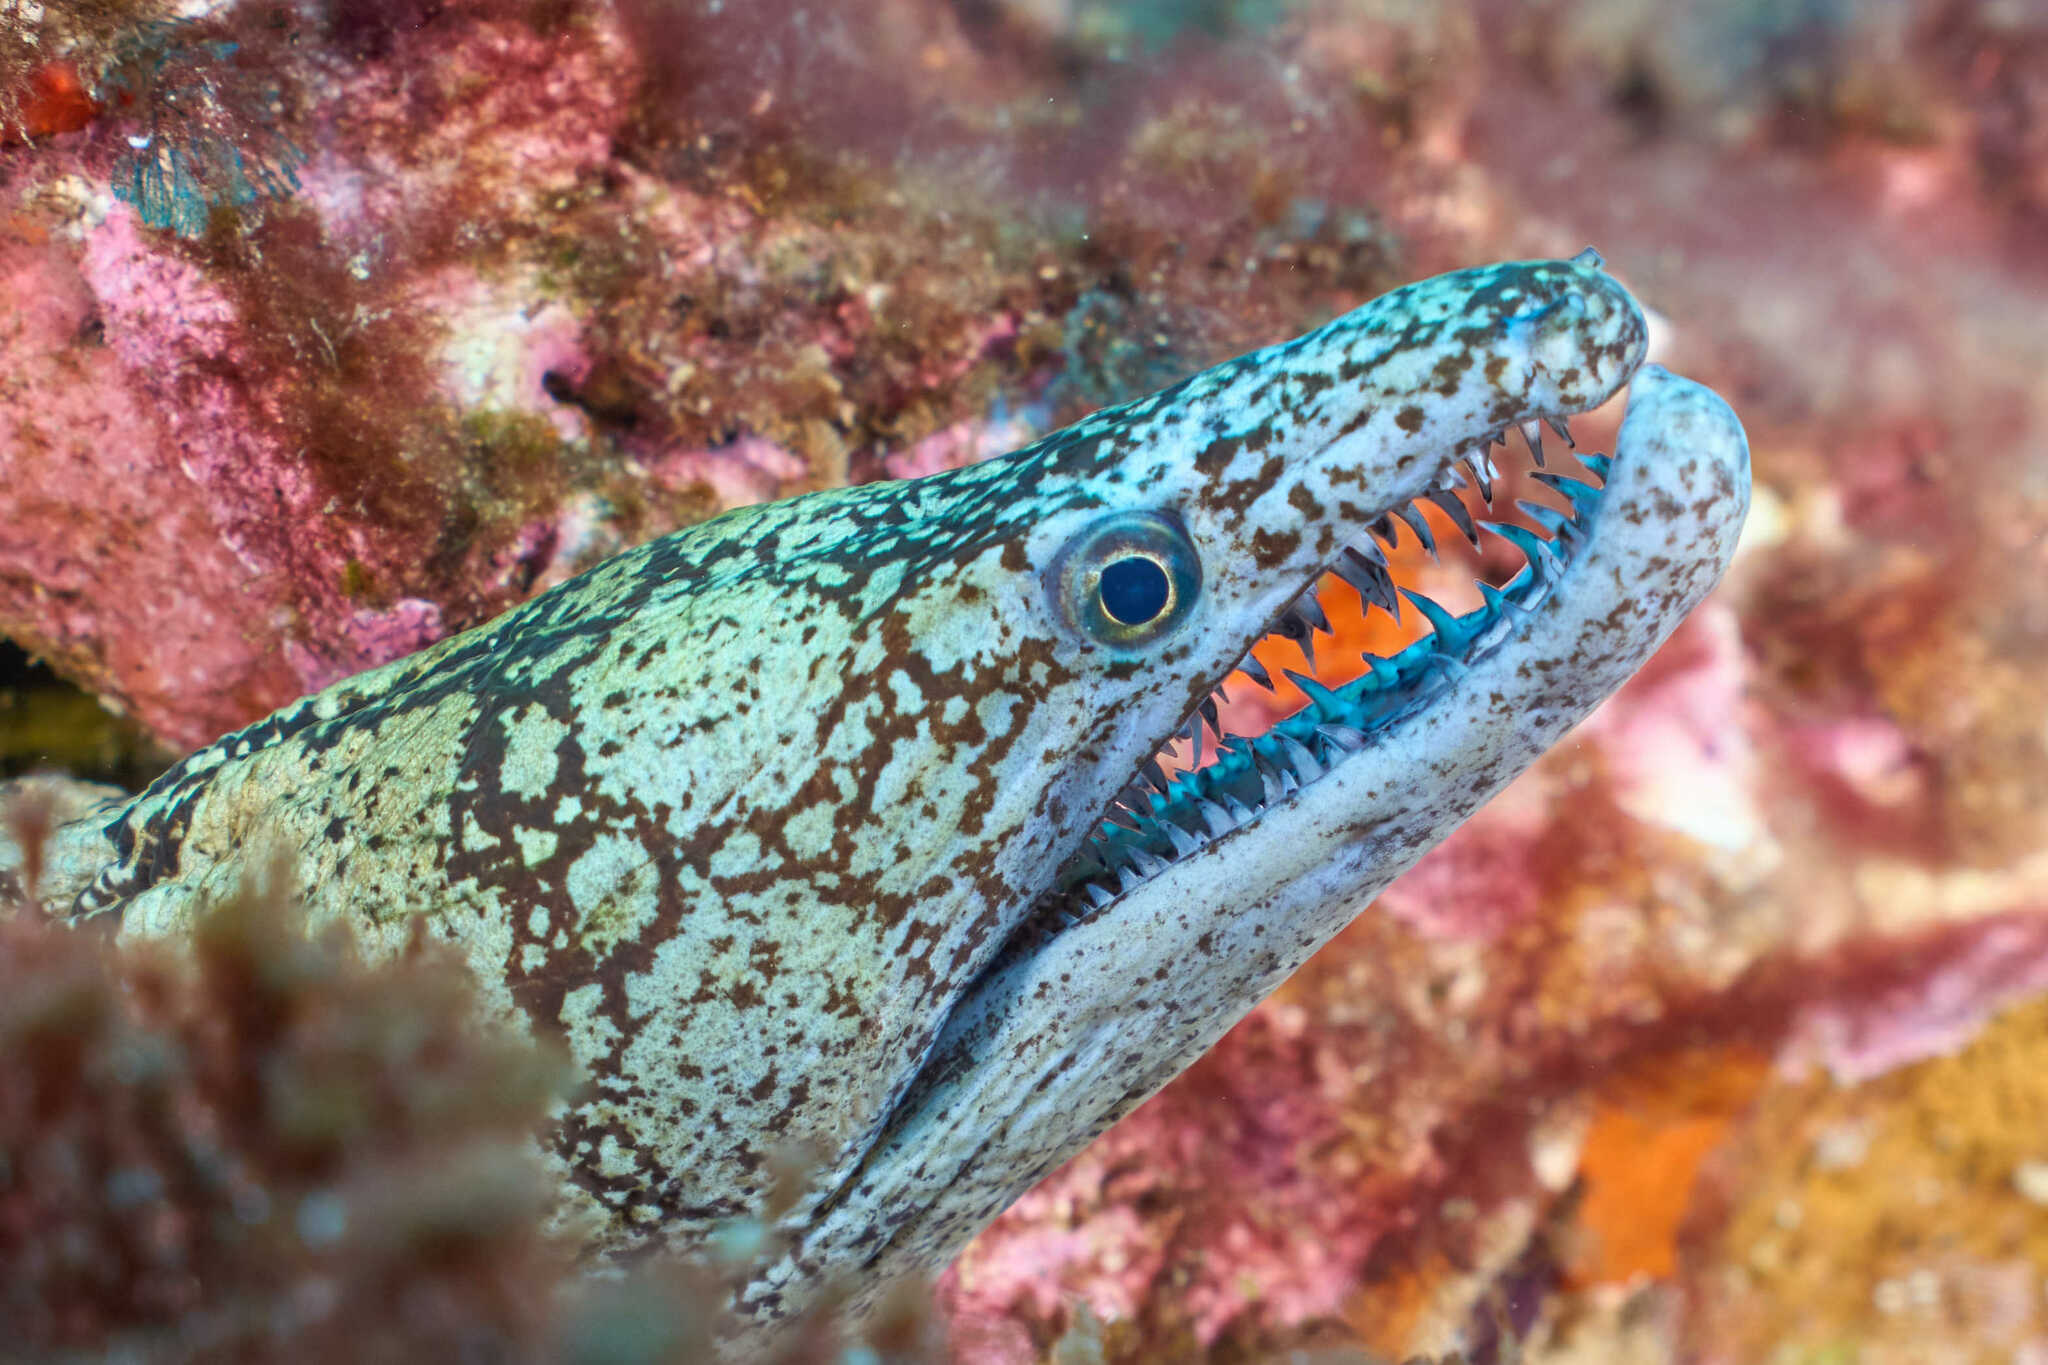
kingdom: Animalia
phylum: Chordata
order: Anguilliformes
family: Muraenidae
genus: Enchelycore
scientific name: Enchelycore ramosa
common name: Mosaic moray
